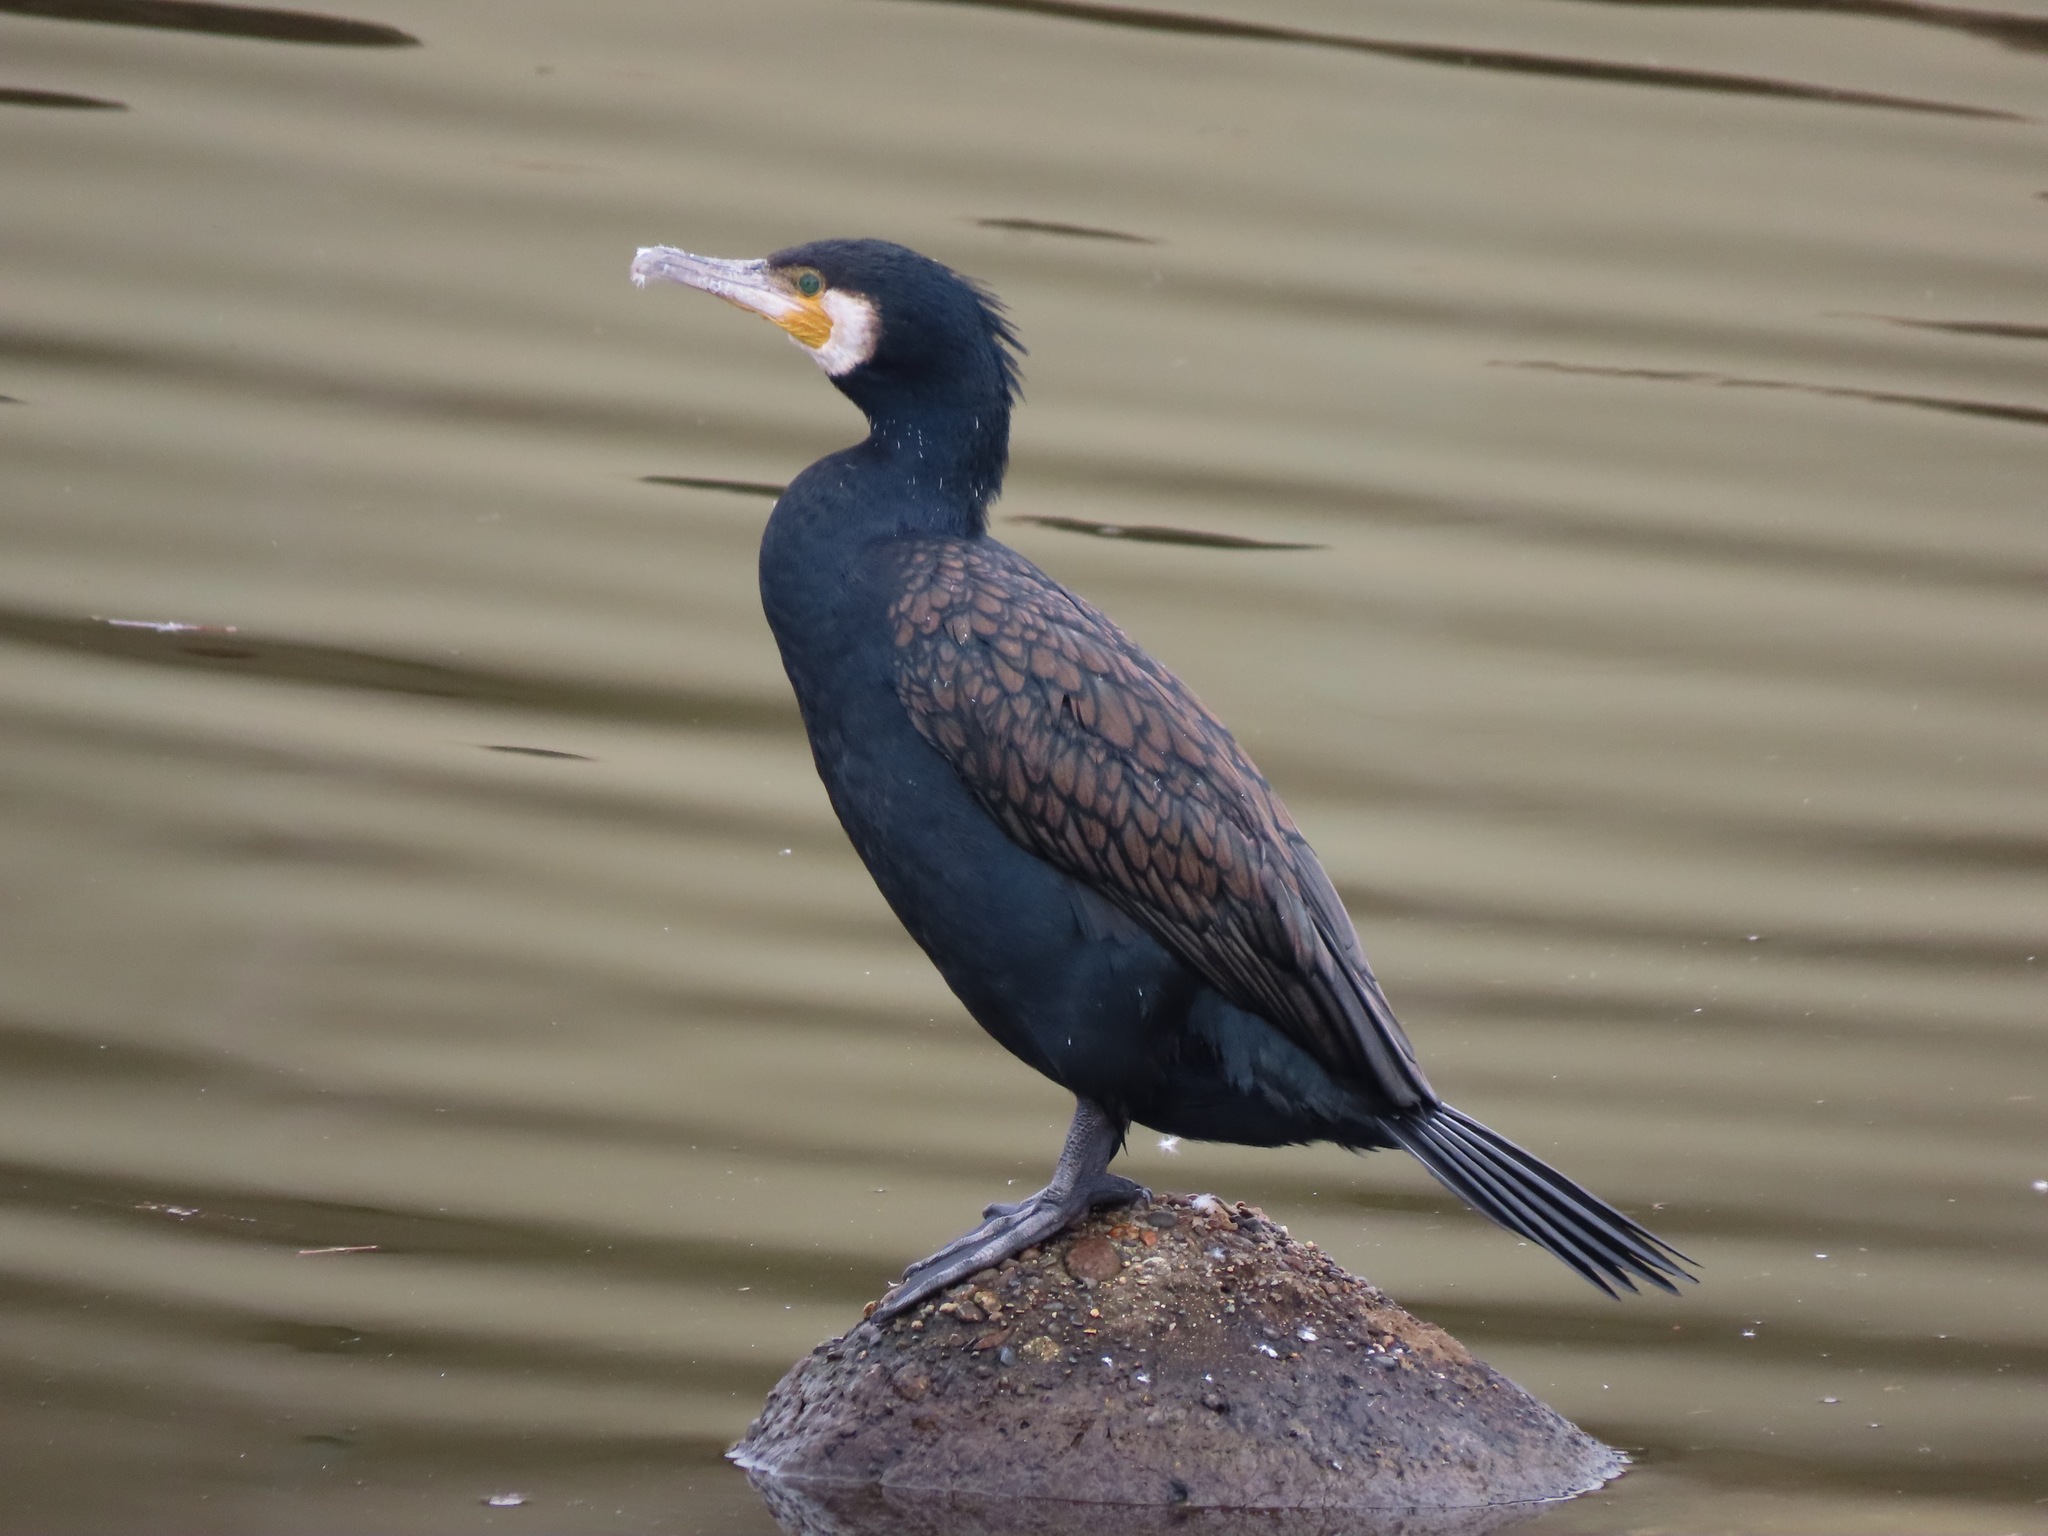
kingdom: Animalia
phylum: Chordata
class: Aves
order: Suliformes
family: Phalacrocoracidae
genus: Phalacrocorax
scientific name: Phalacrocorax carbo
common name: Great cormorant
